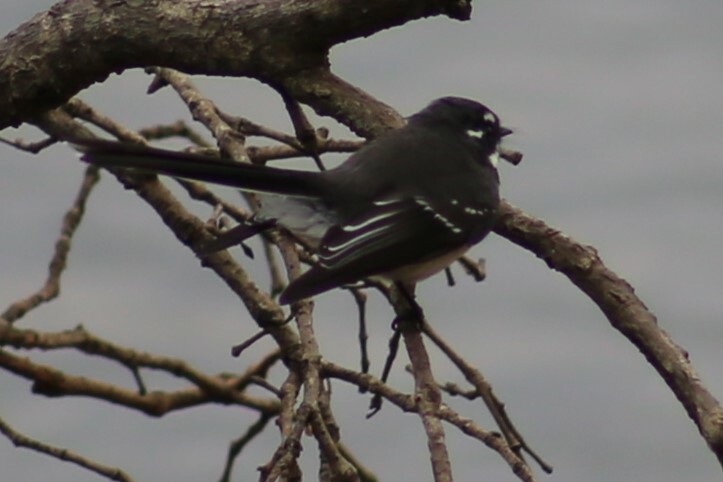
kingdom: Animalia
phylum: Chordata
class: Aves
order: Passeriformes
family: Rhipiduridae
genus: Rhipidura
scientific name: Rhipidura albiscapa
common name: Grey fantail
